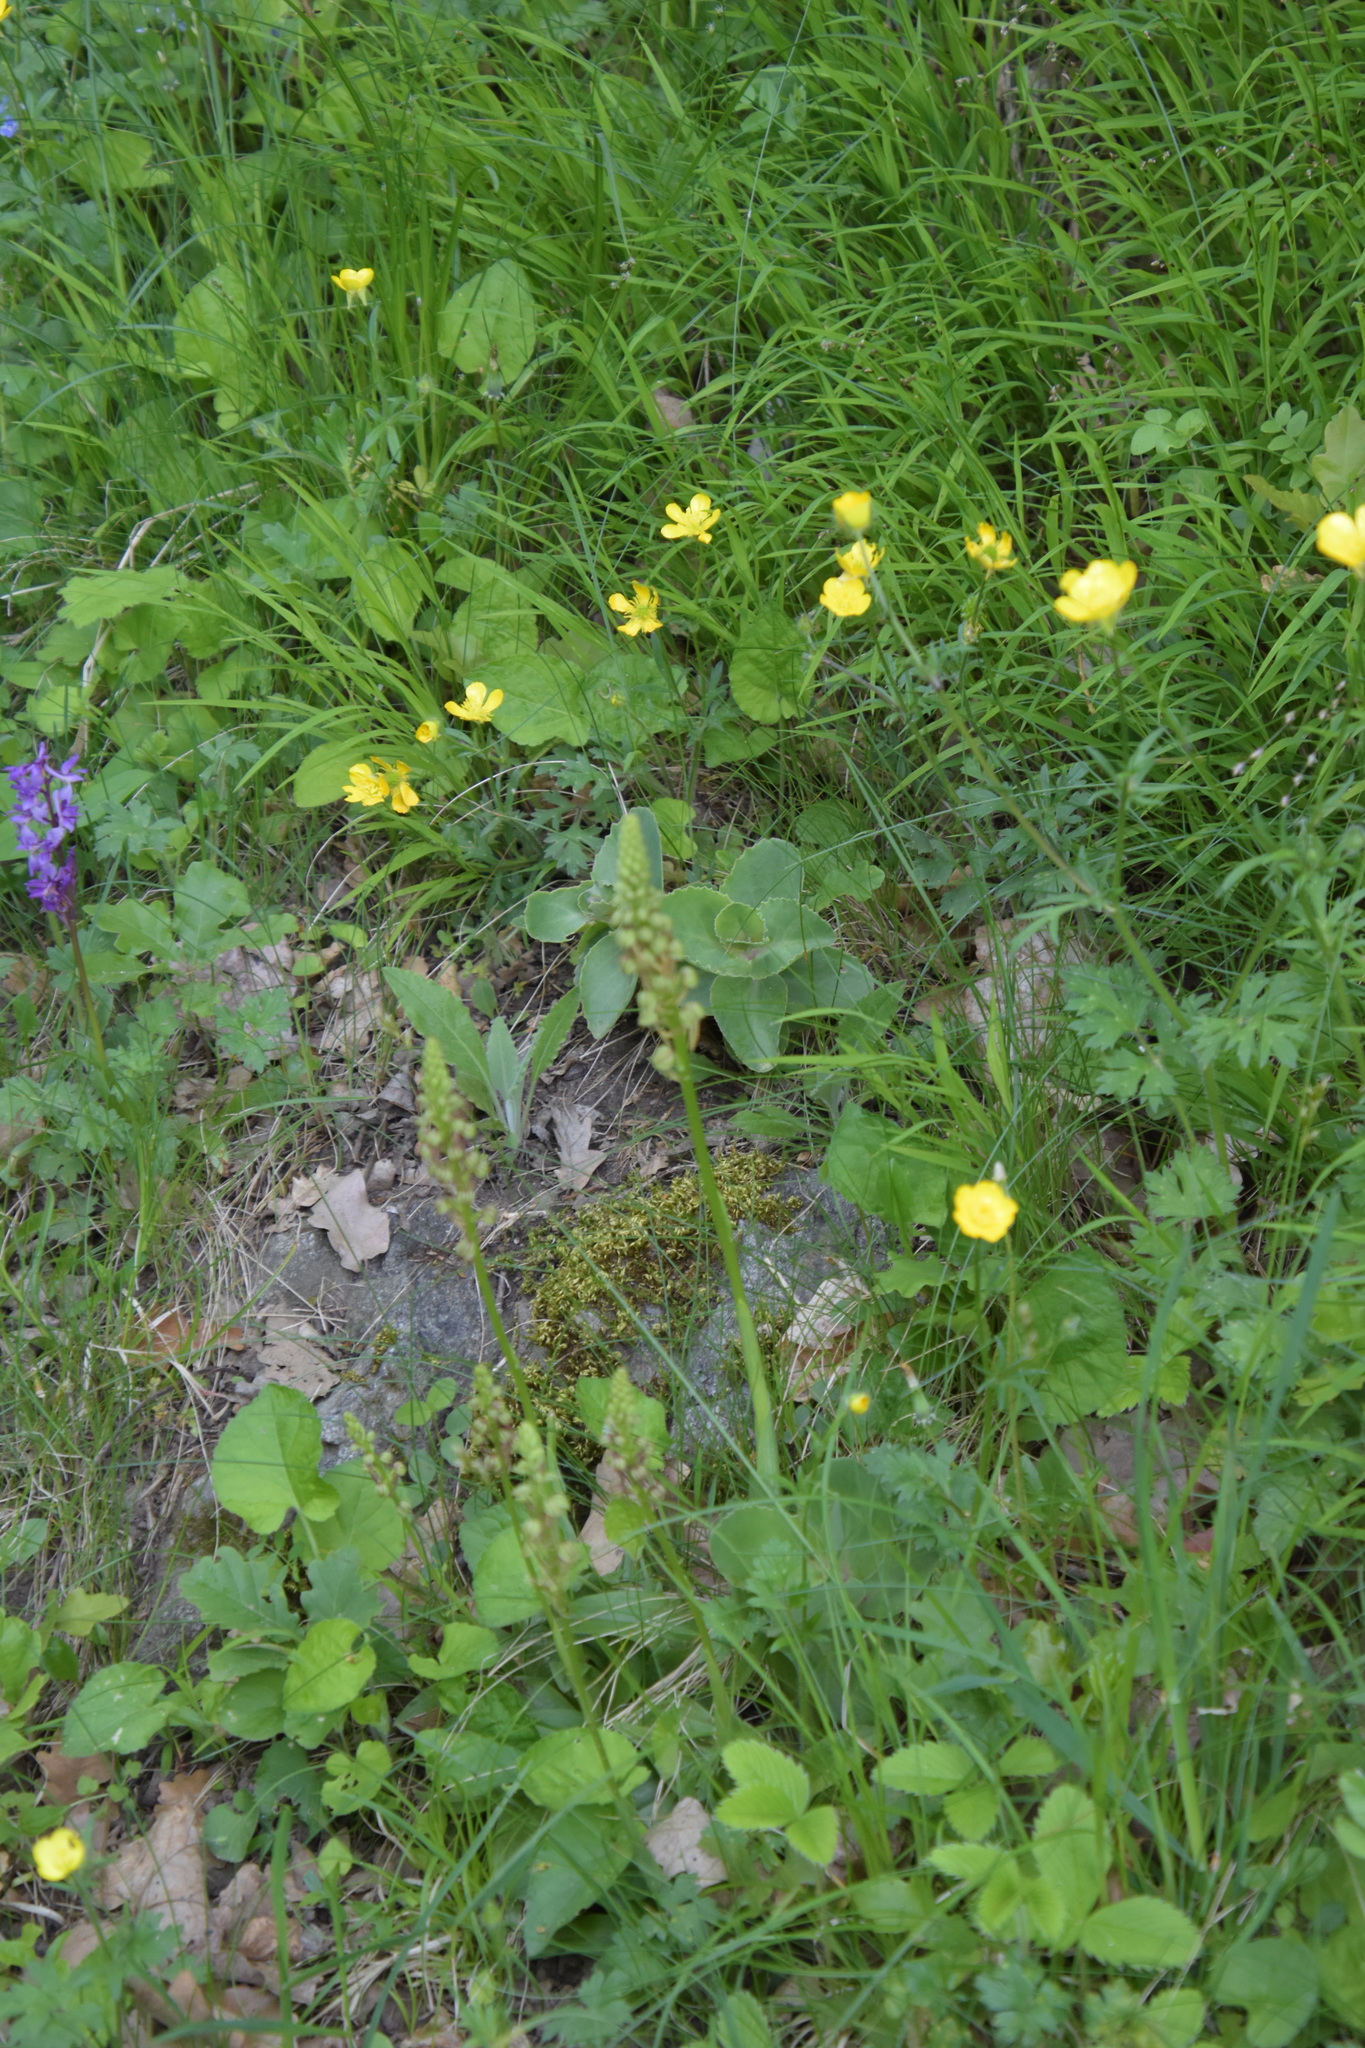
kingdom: Plantae
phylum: Tracheophyta
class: Liliopsida
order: Asparagales
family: Orchidaceae
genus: Orchis
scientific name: Orchis anthropophora
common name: Man orchid
